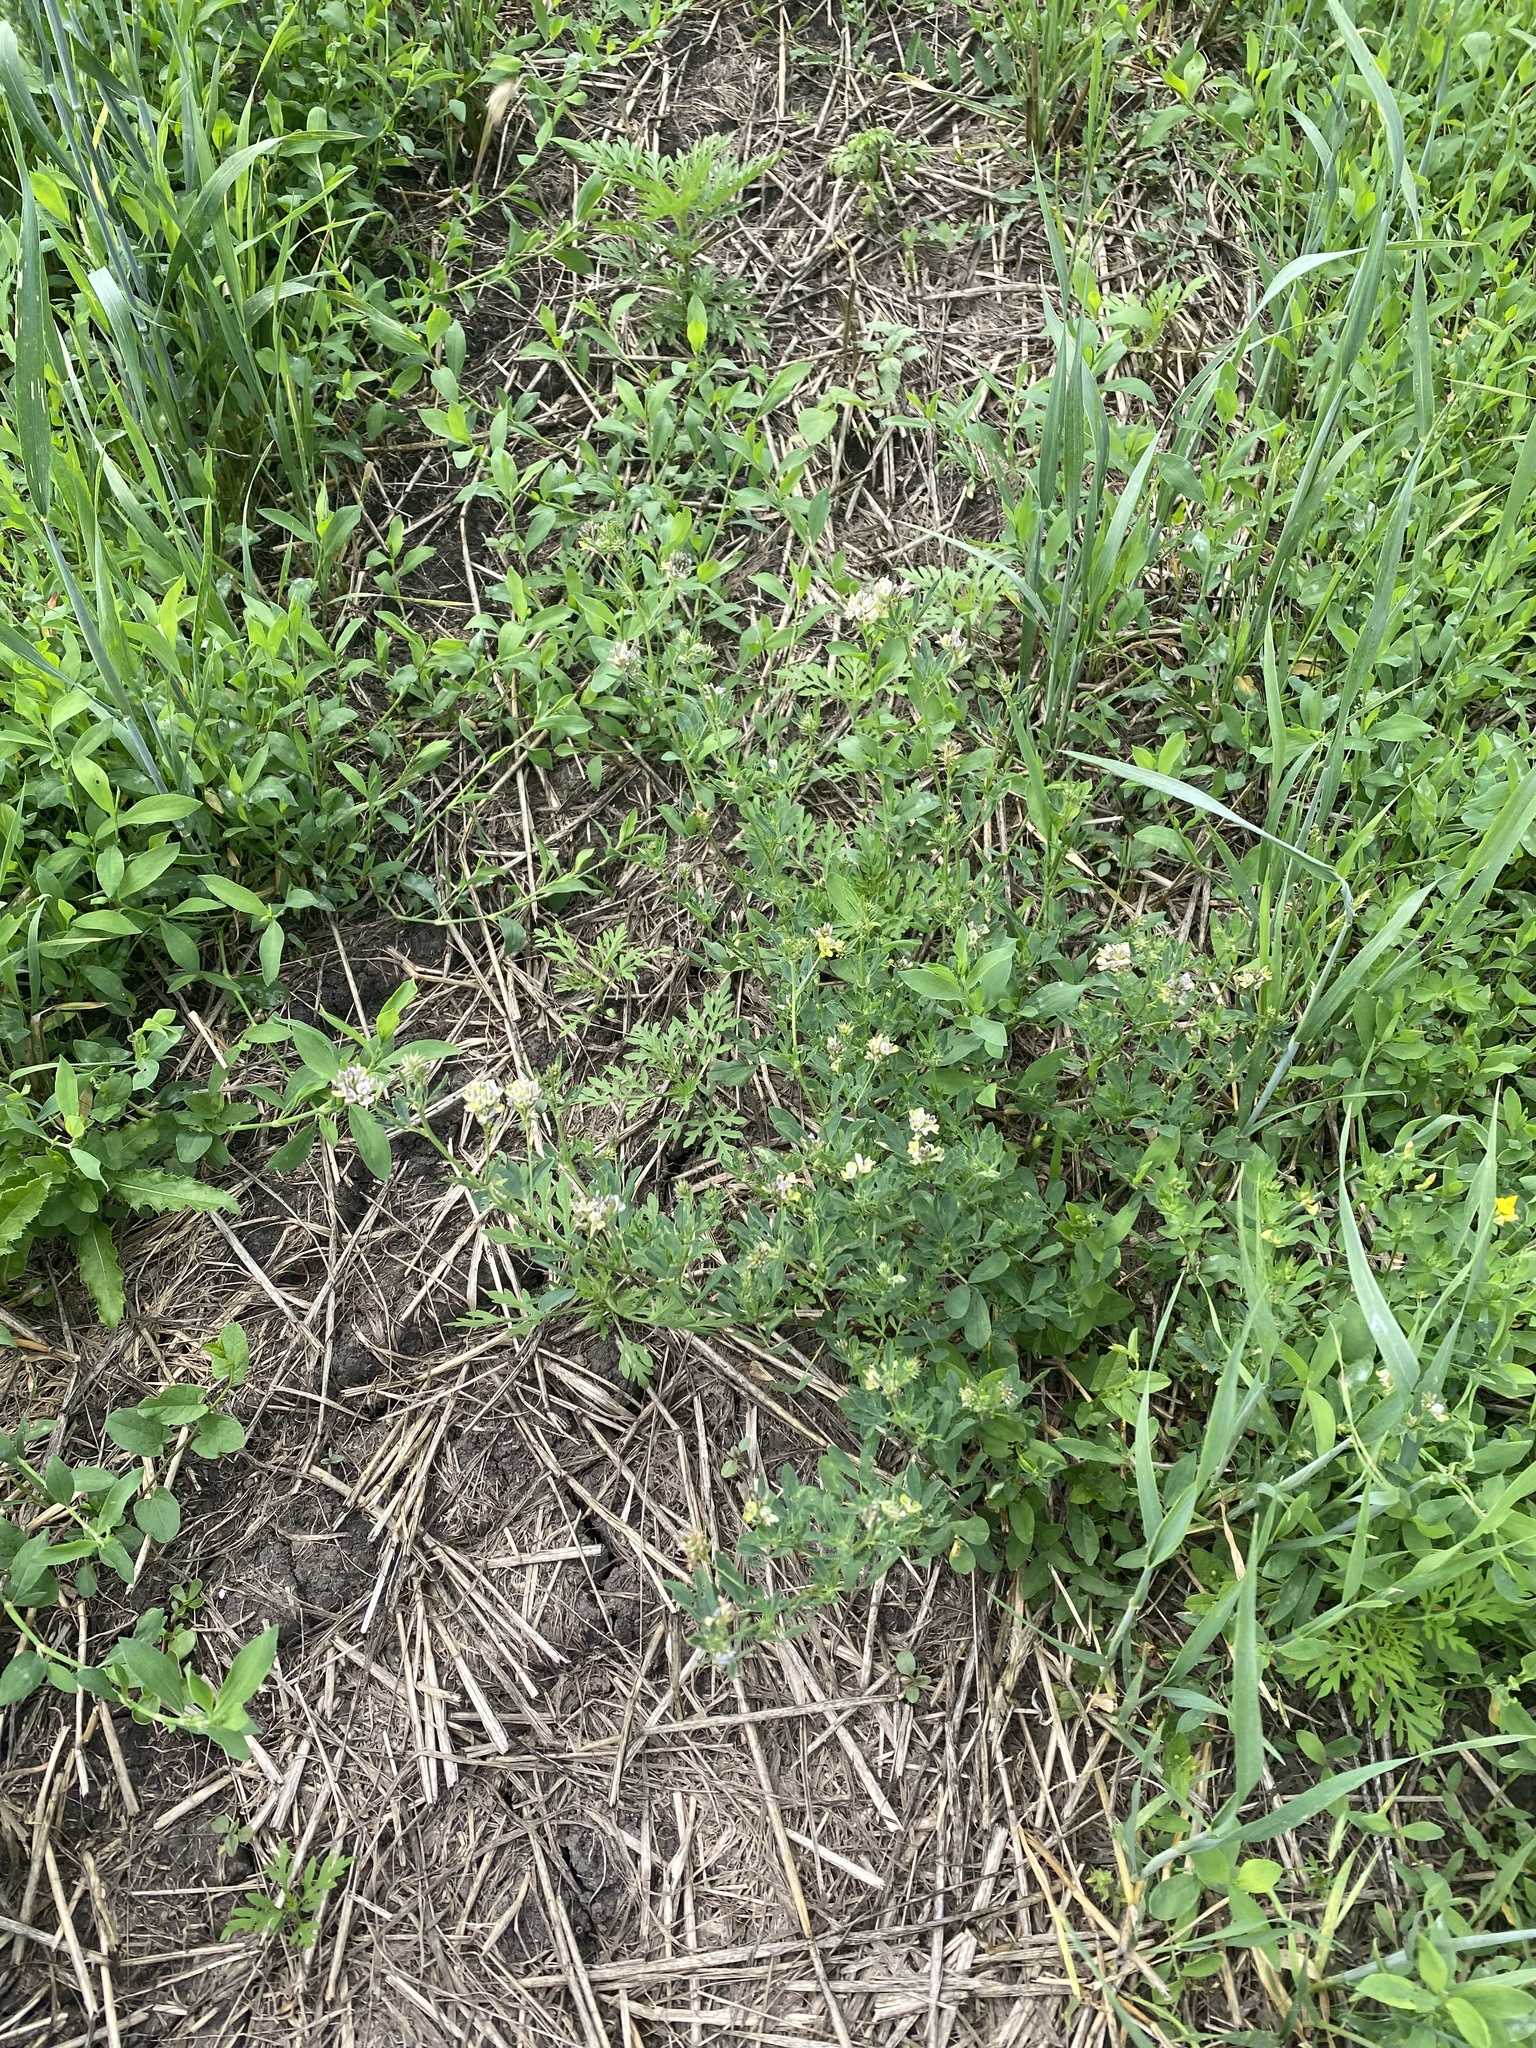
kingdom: Plantae
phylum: Tracheophyta
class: Magnoliopsida
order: Fabales
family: Fabaceae
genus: Medicago
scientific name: Medicago varia
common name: Sand lucerne
